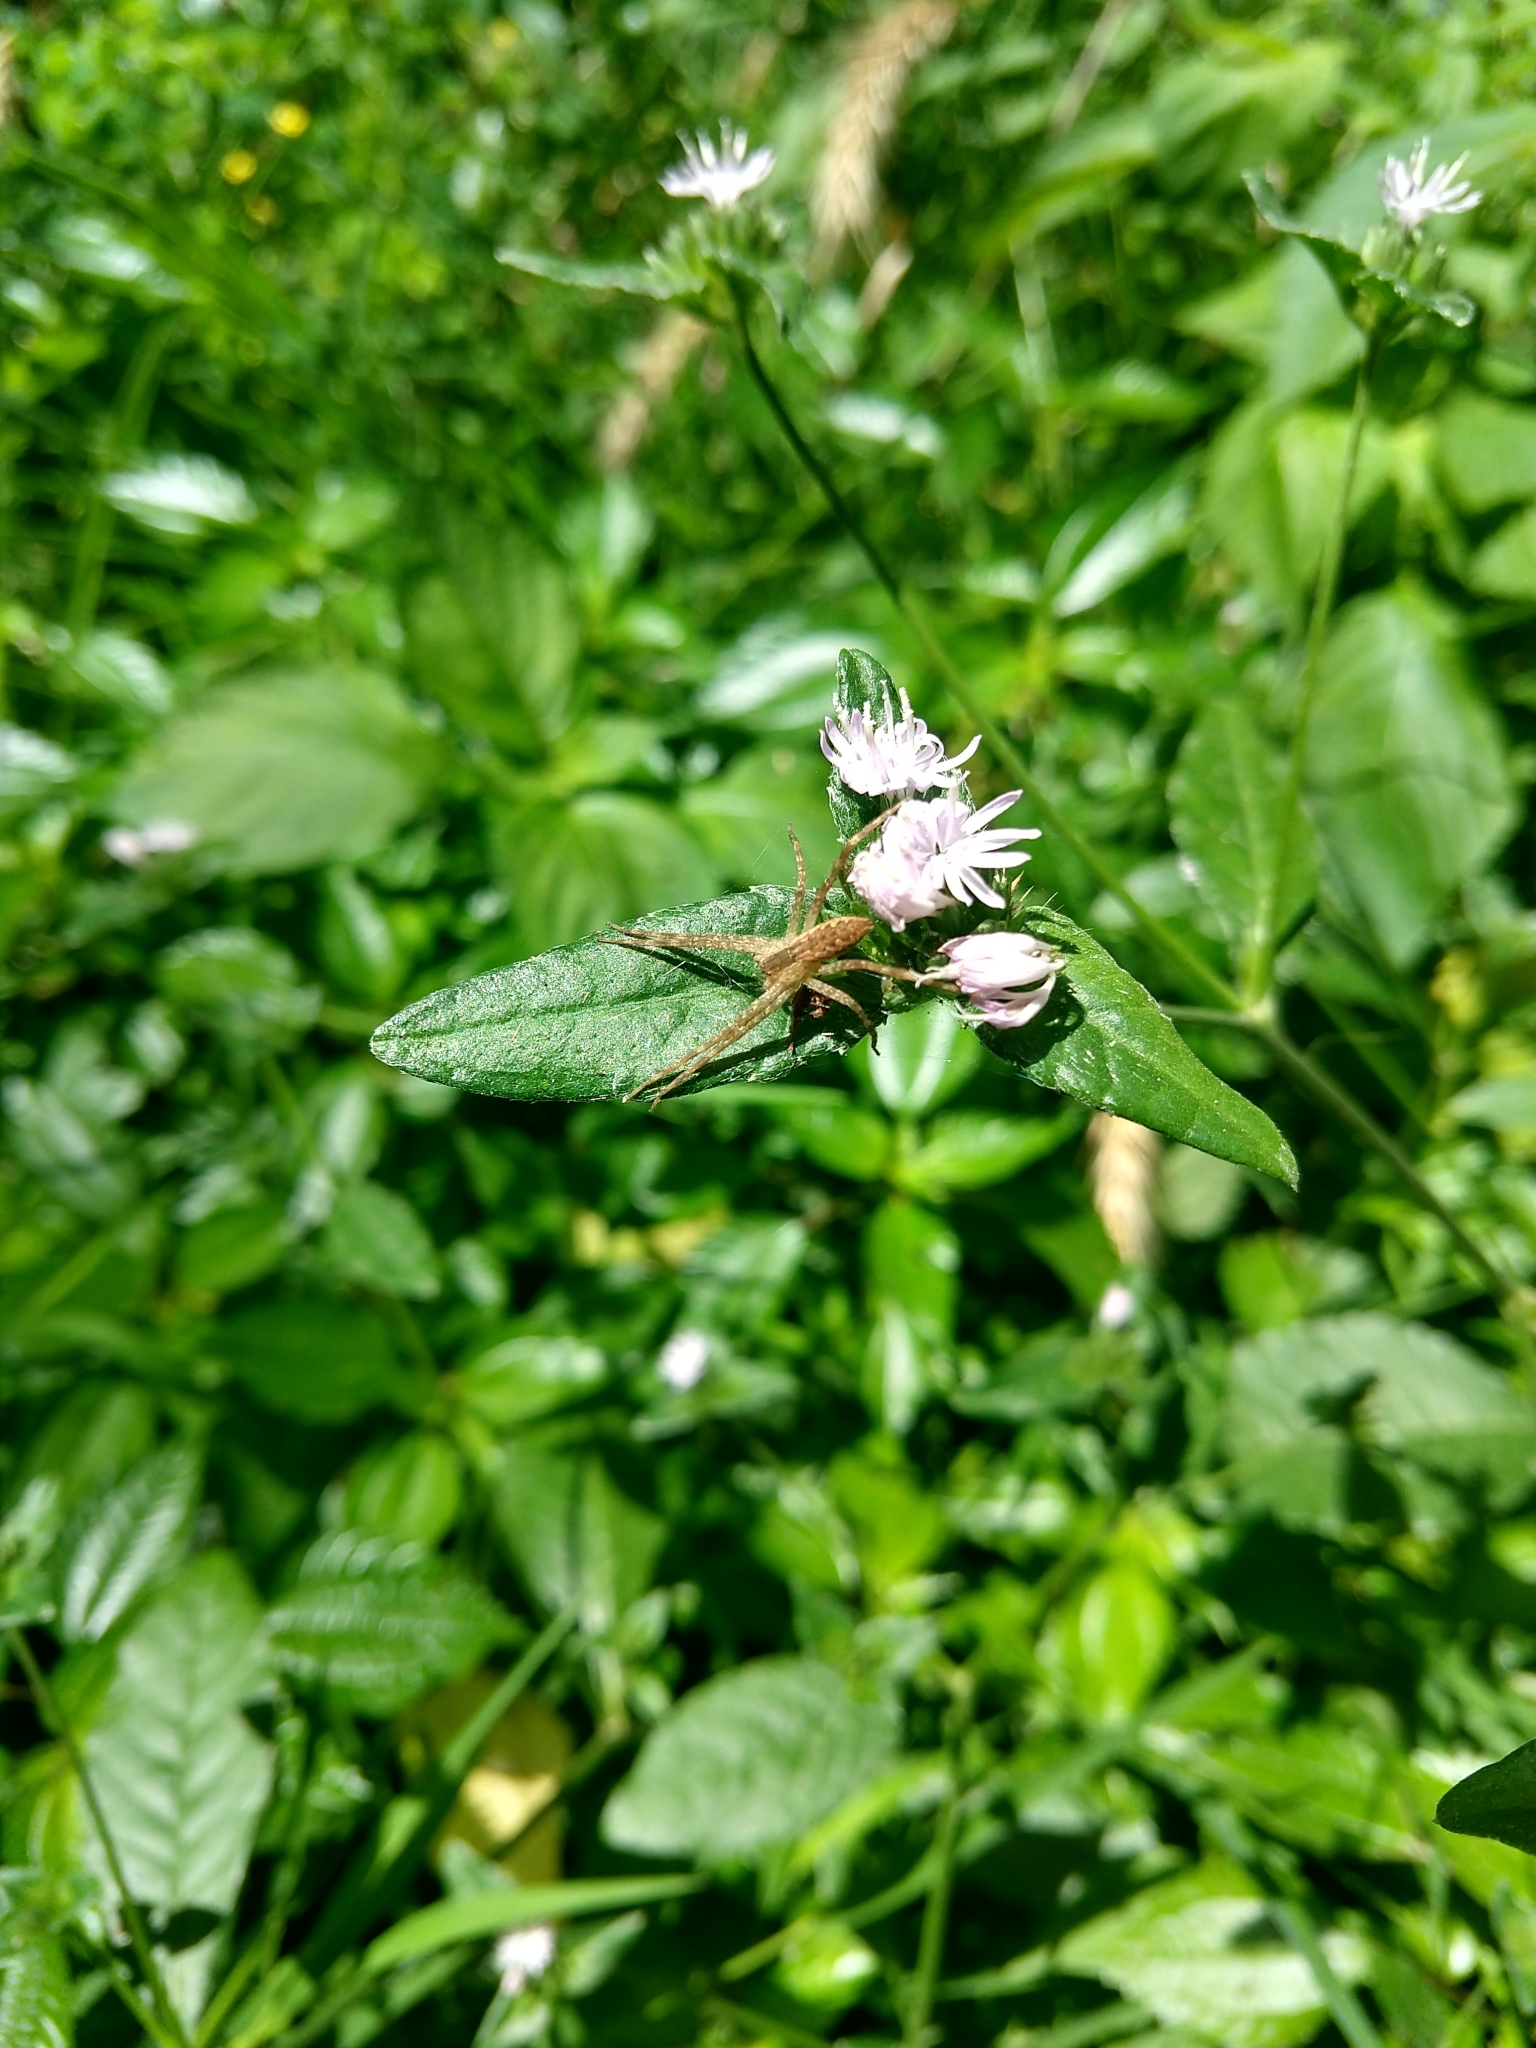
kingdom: Animalia
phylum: Arthropoda
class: Arachnida
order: Araneae
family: Pisauridae
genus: Pisaurina
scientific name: Pisaurina mira
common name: American nursery web spider
